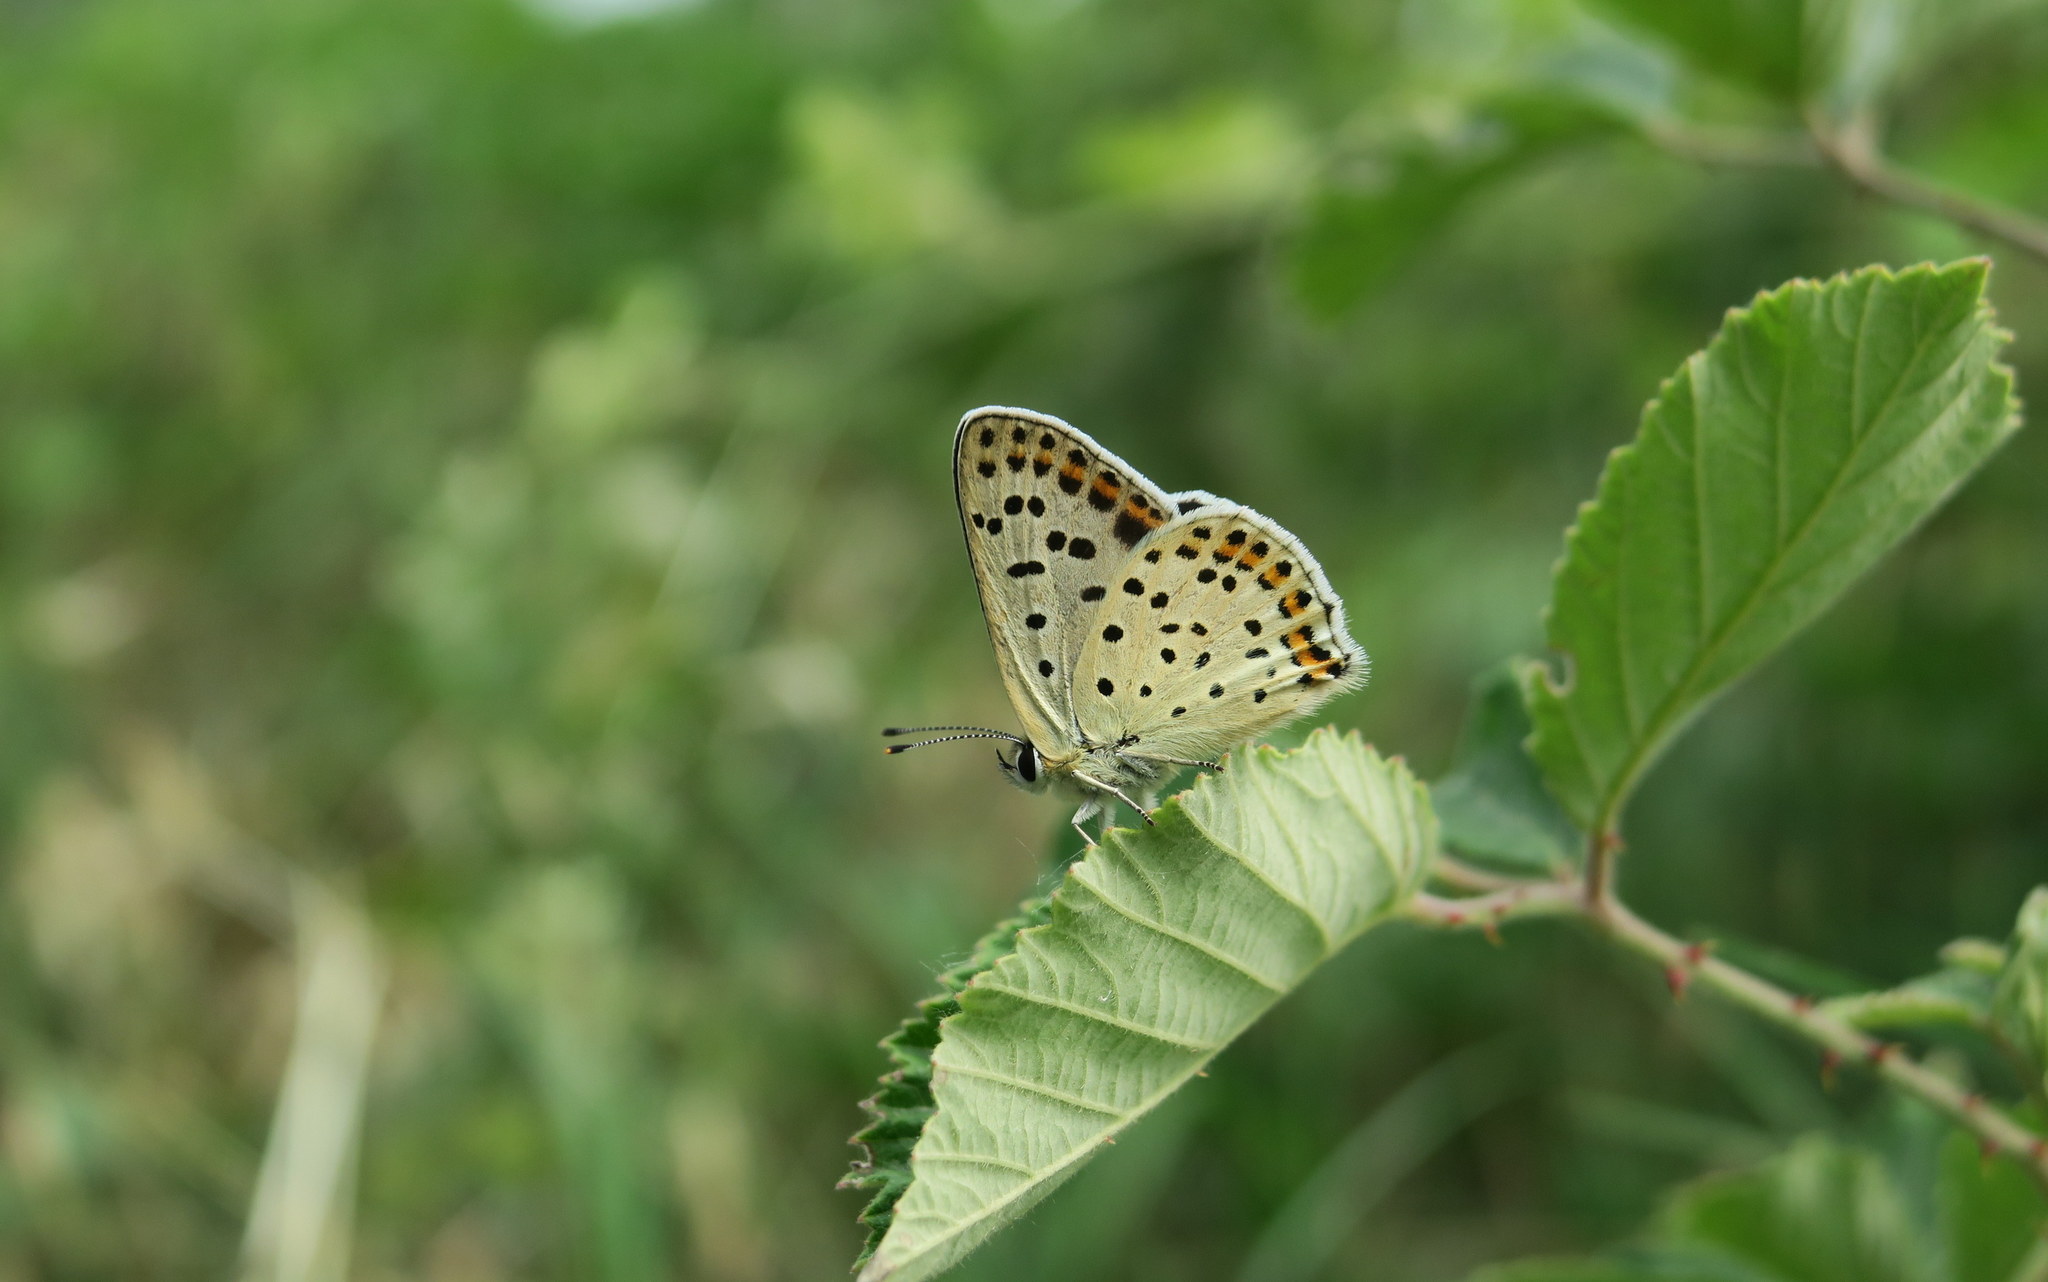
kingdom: Animalia
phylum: Arthropoda
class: Insecta
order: Lepidoptera
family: Lycaenidae
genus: Loweia
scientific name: Loweia tityrus
